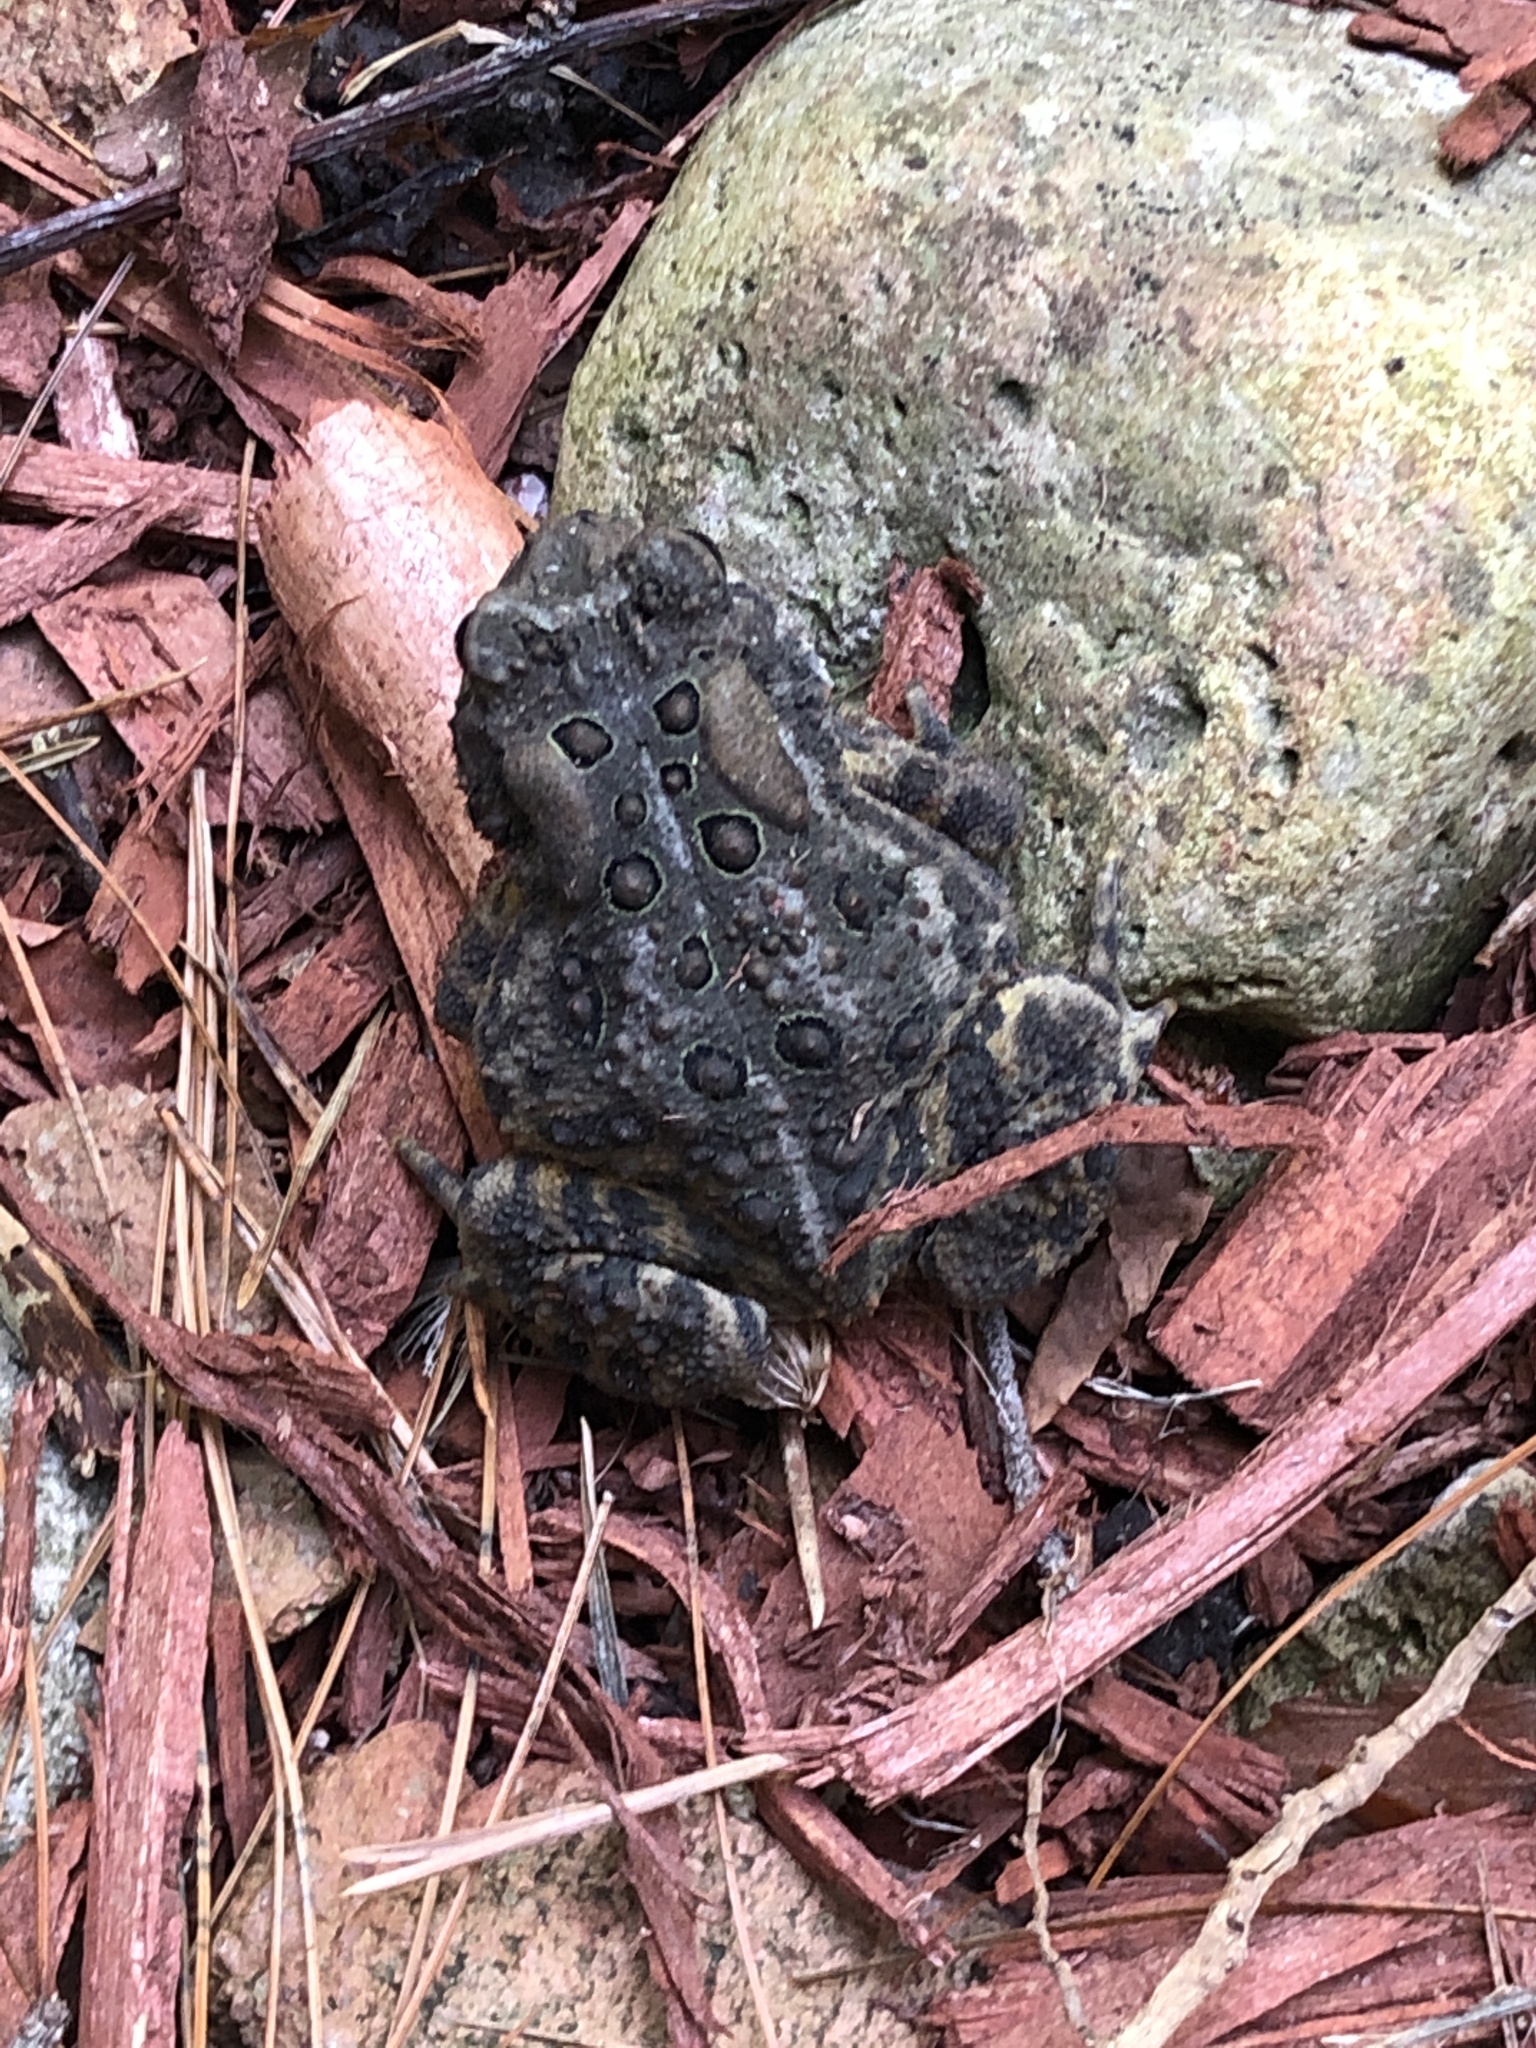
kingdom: Animalia
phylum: Chordata
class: Amphibia
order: Anura
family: Bufonidae
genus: Anaxyrus
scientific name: Anaxyrus americanus
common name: American toad
